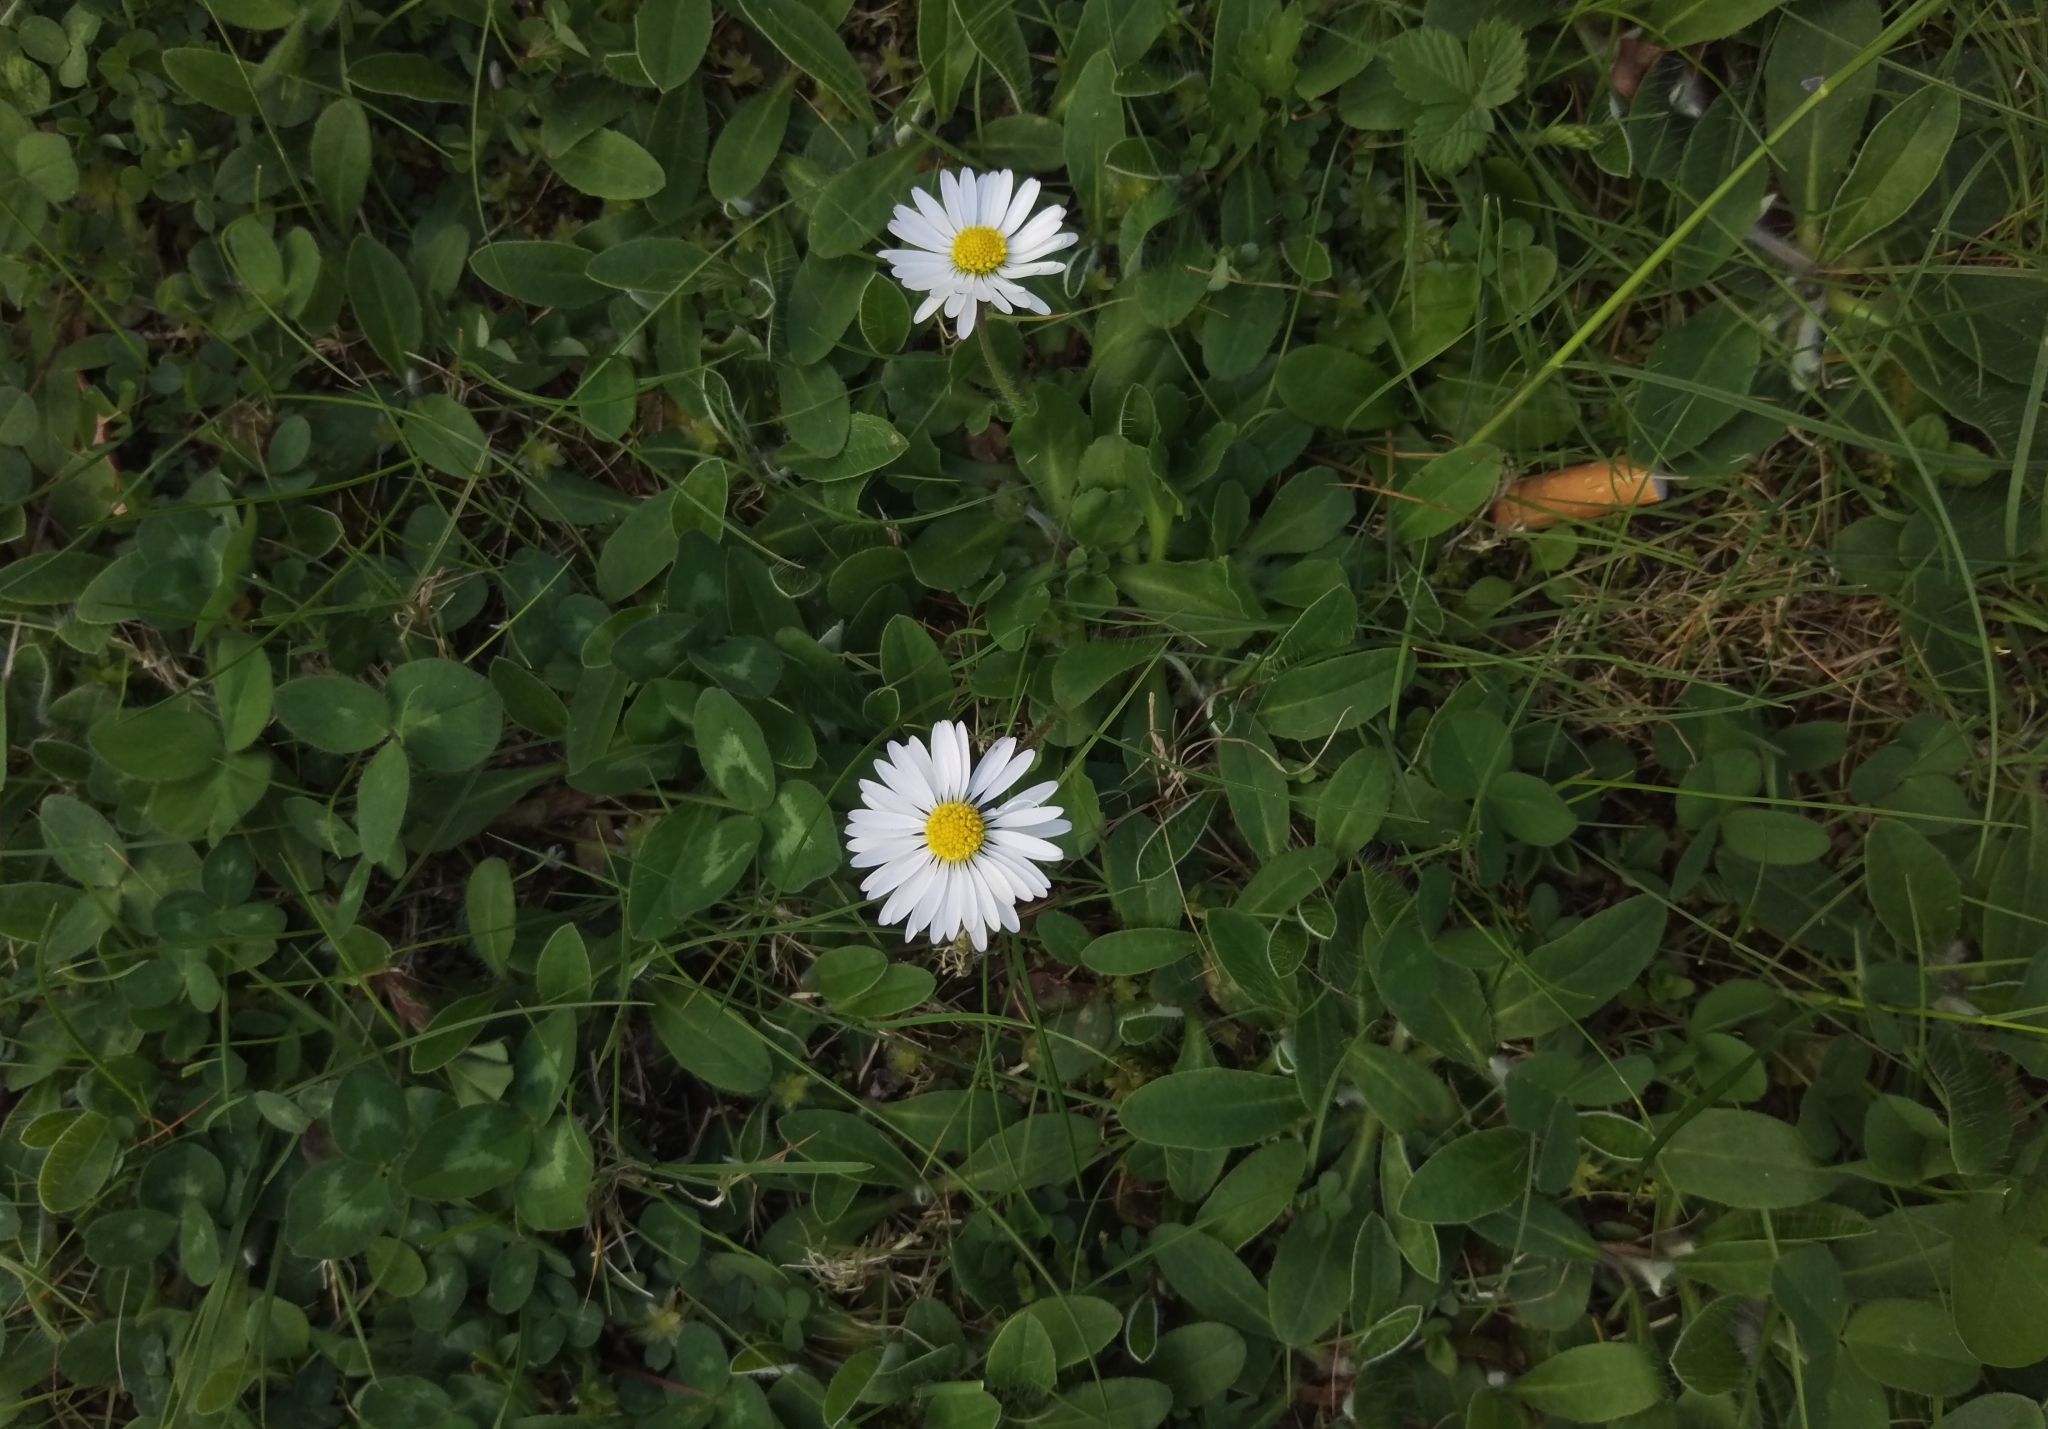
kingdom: Plantae
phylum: Tracheophyta
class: Magnoliopsida
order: Asterales
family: Asteraceae
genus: Bellis
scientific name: Bellis perennis
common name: Lawndaisy
